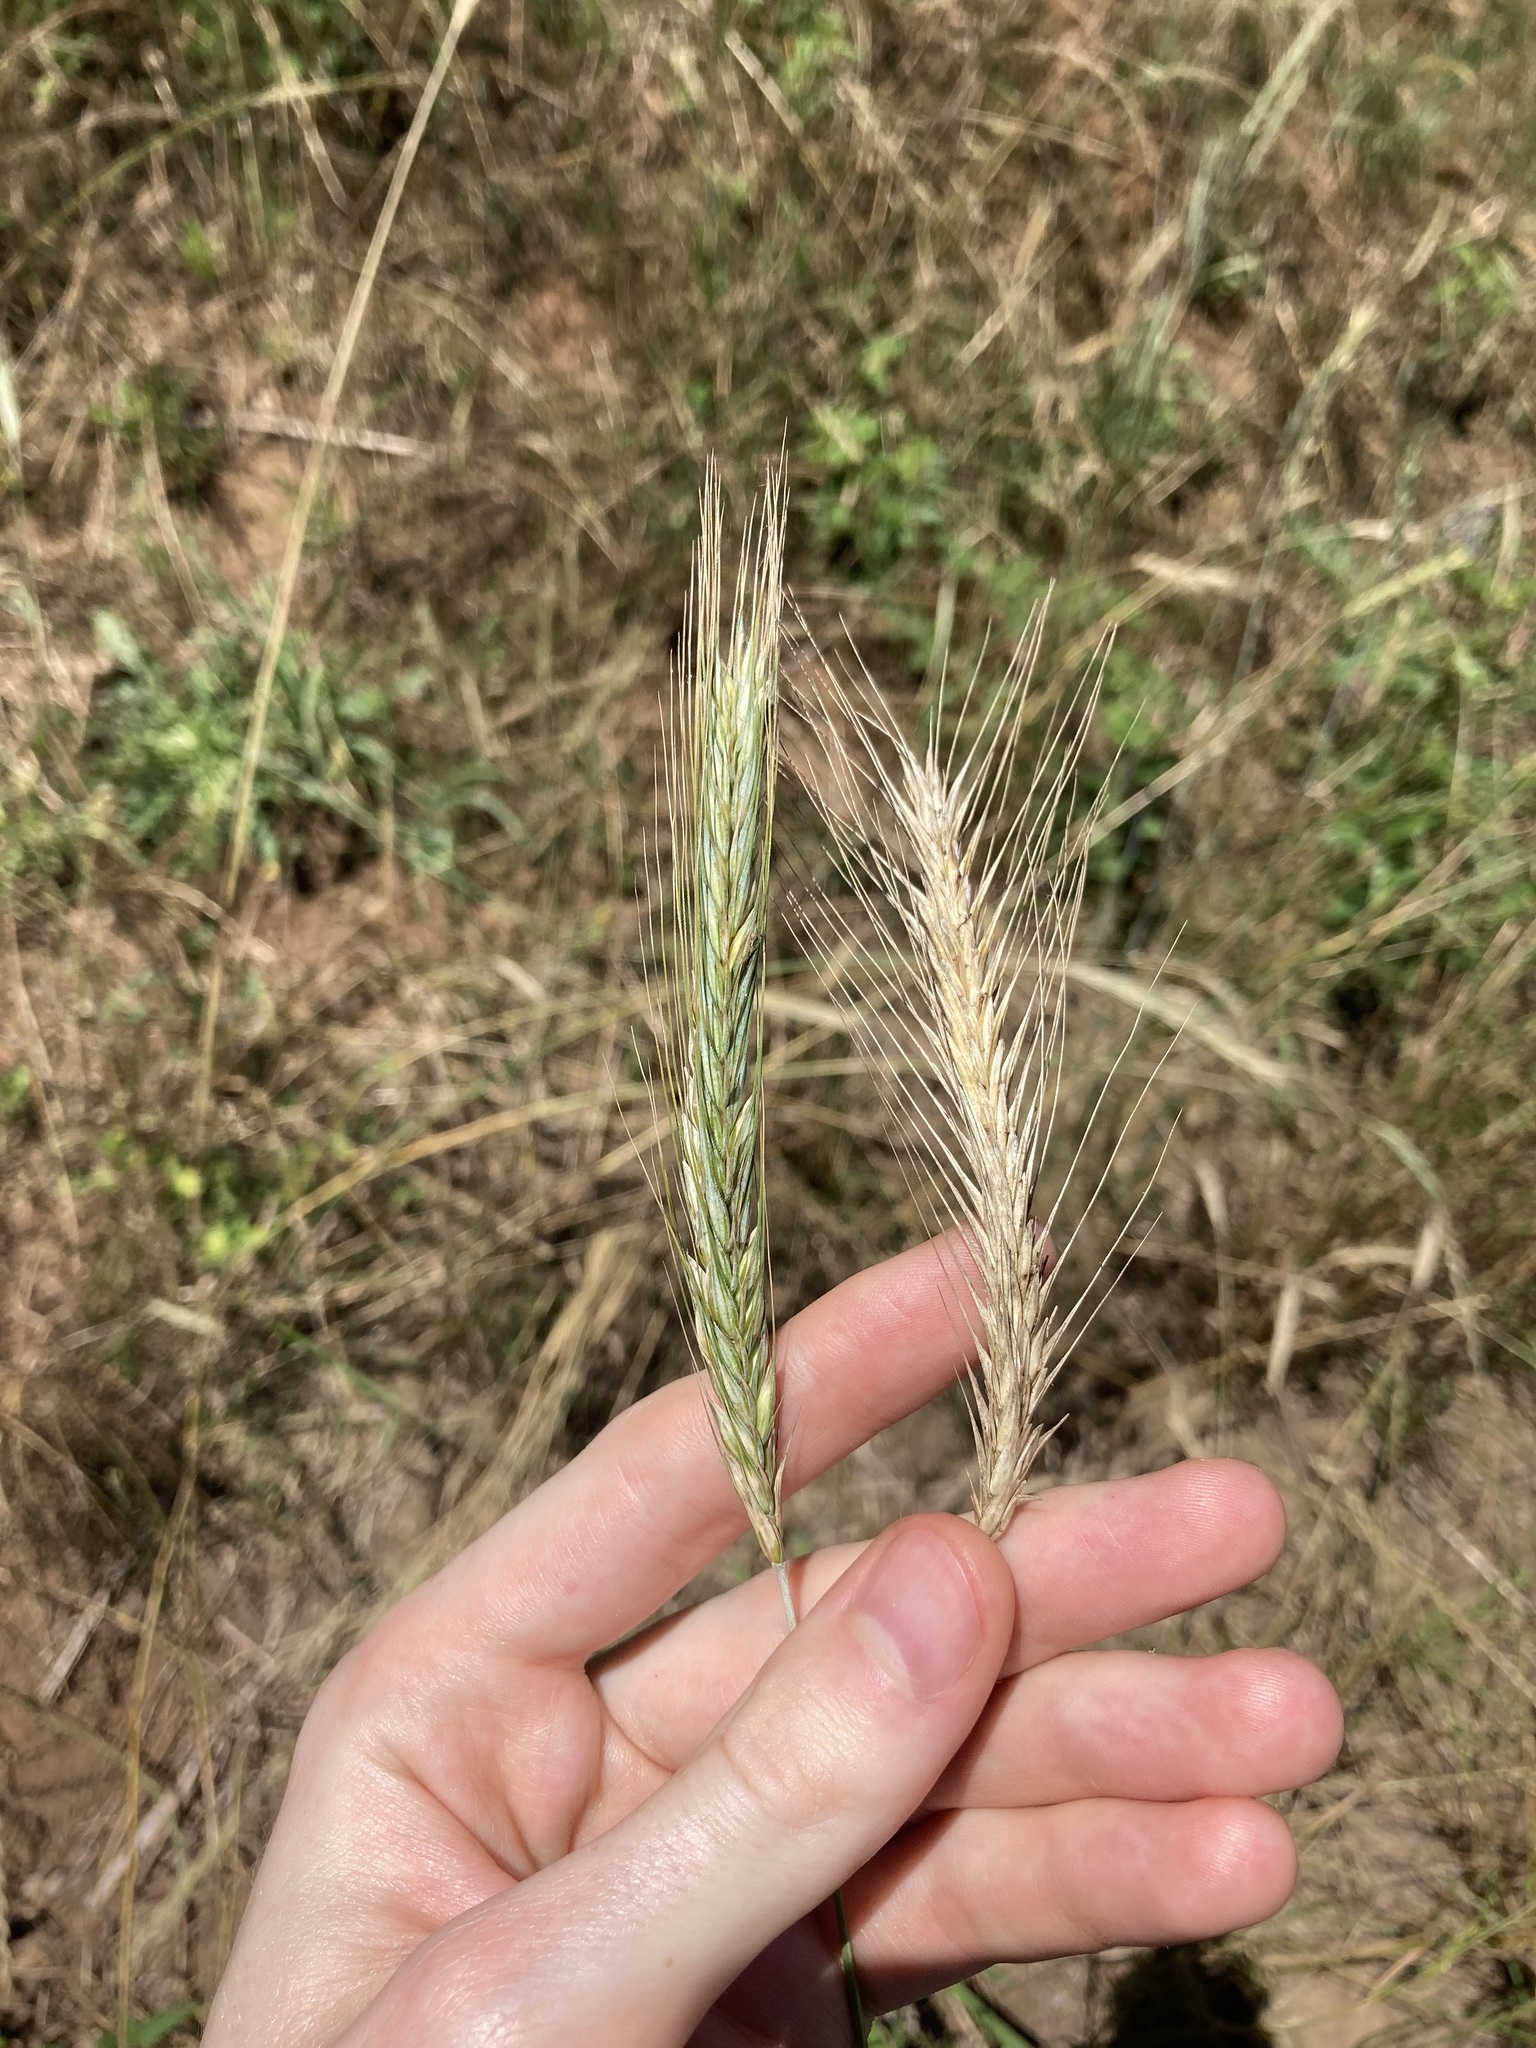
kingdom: Plantae
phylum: Tracheophyta
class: Liliopsida
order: Poales
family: Poaceae
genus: Secale
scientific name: Secale cereale
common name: Rye
